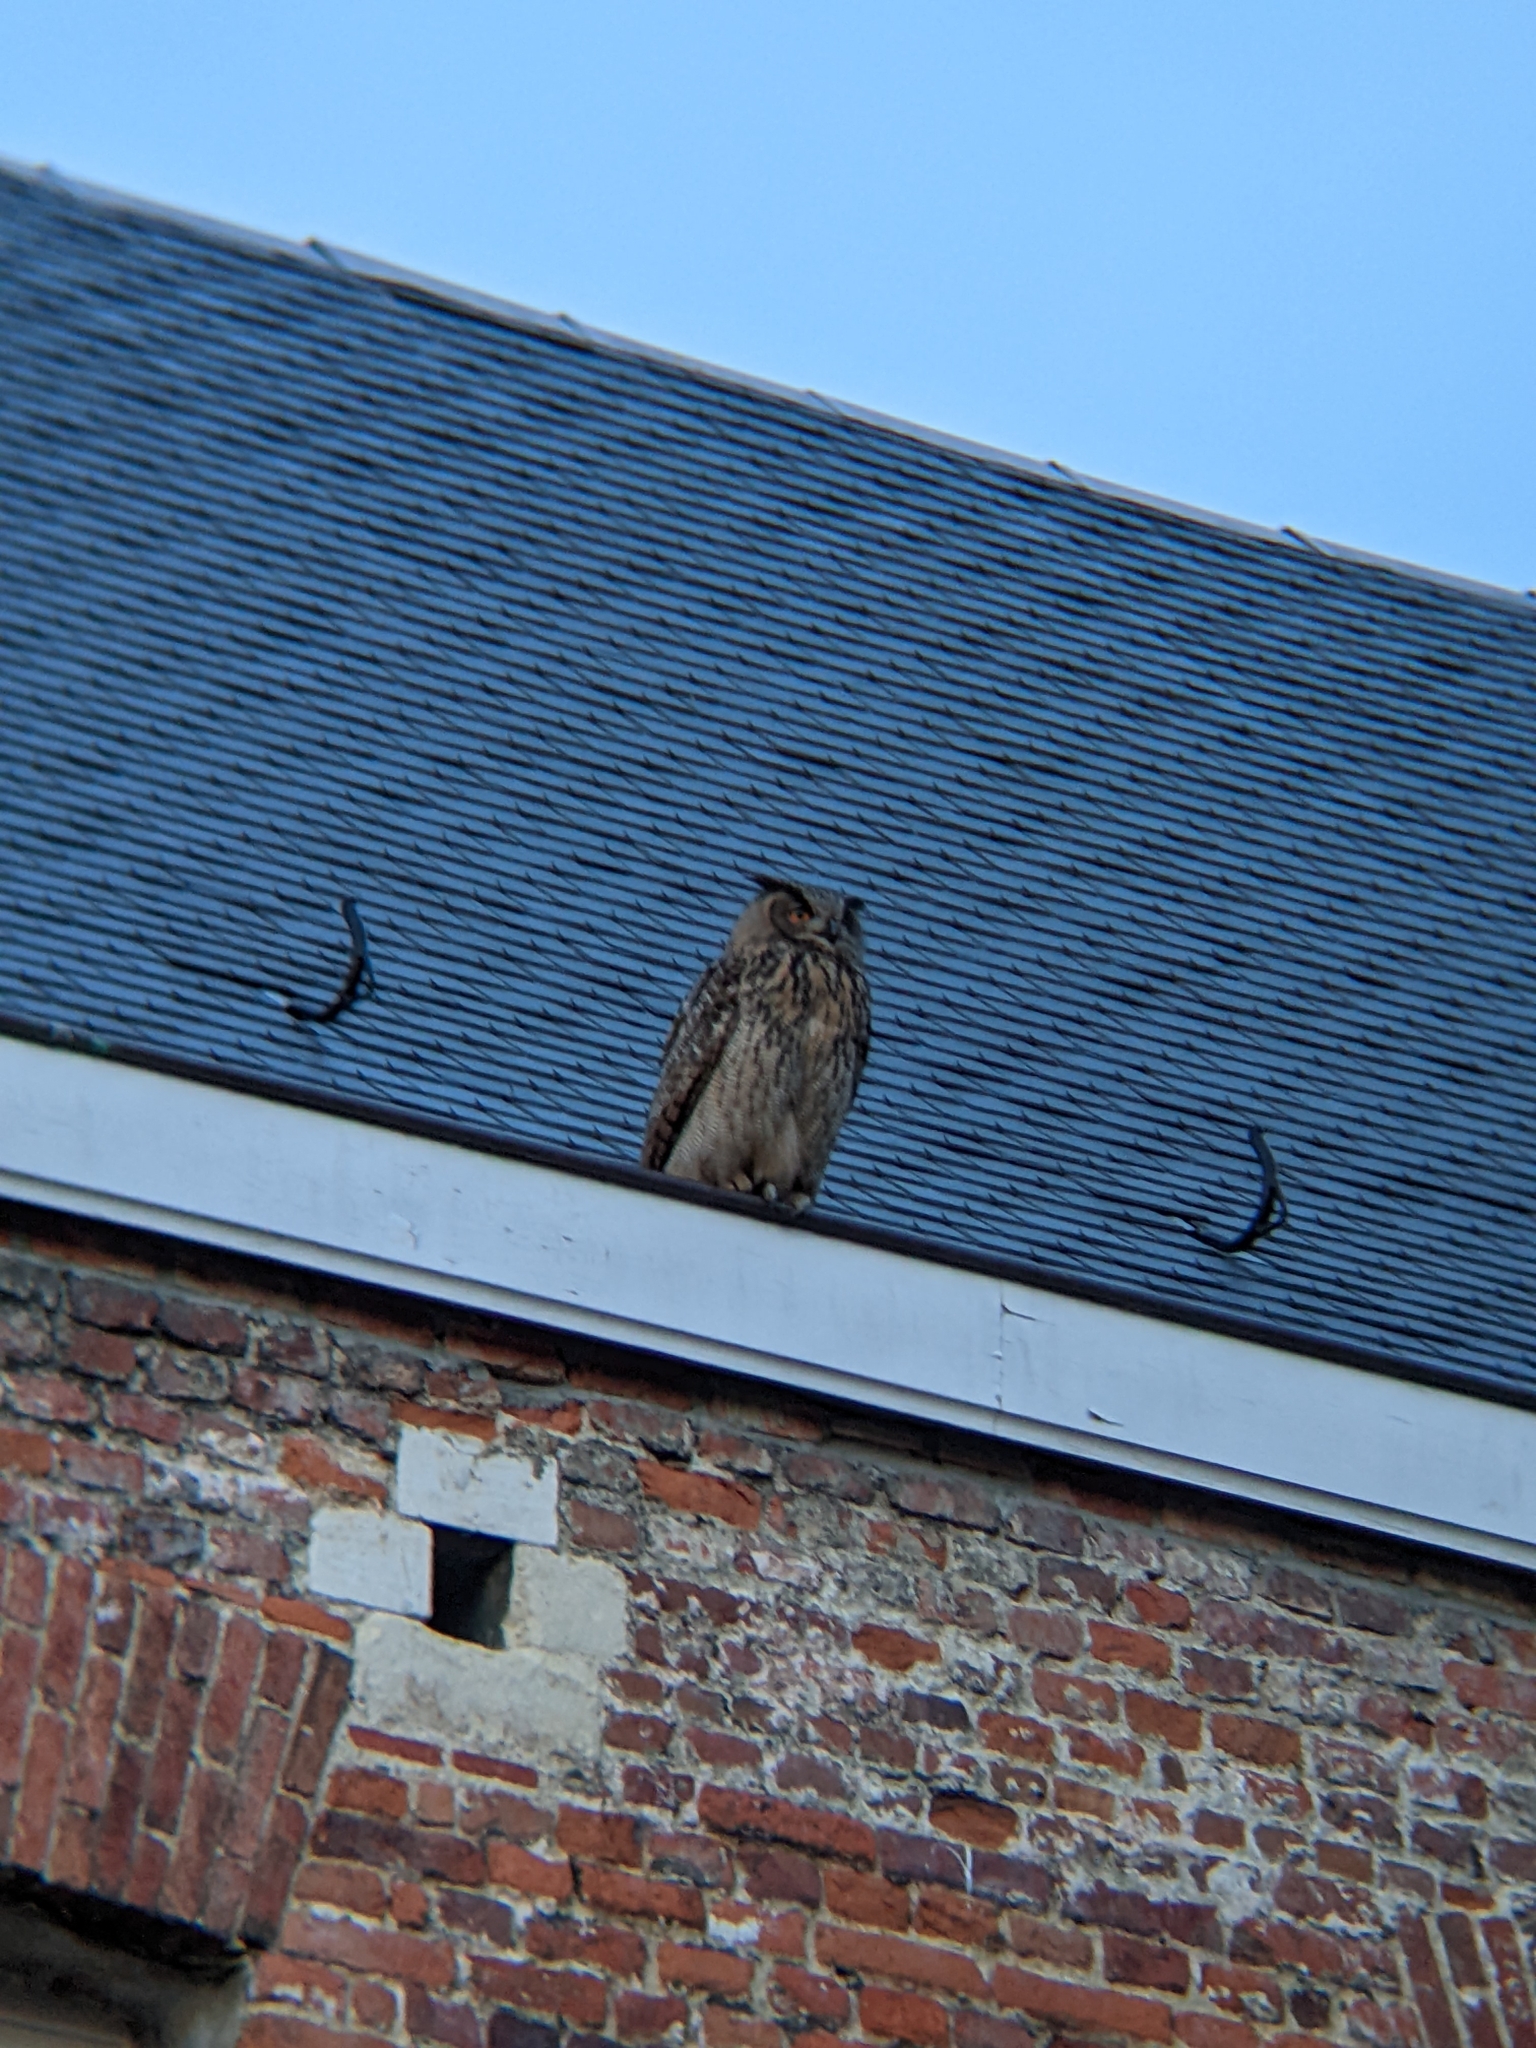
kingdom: Animalia
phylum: Chordata
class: Aves
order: Strigiformes
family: Strigidae
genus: Bubo
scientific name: Bubo bubo
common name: Eurasian eagle-owl
